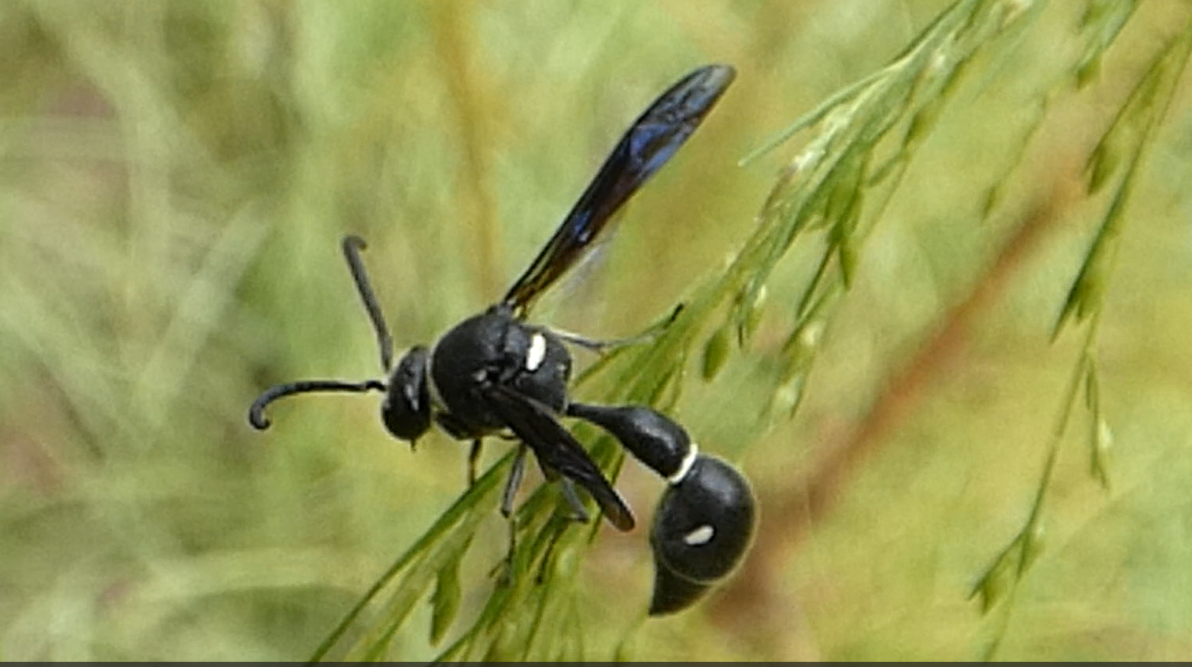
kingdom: Animalia
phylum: Arthropoda
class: Insecta
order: Hymenoptera
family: Vespidae
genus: Eumenes
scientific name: Eumenes fraternus
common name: Fraternal potter wasp
